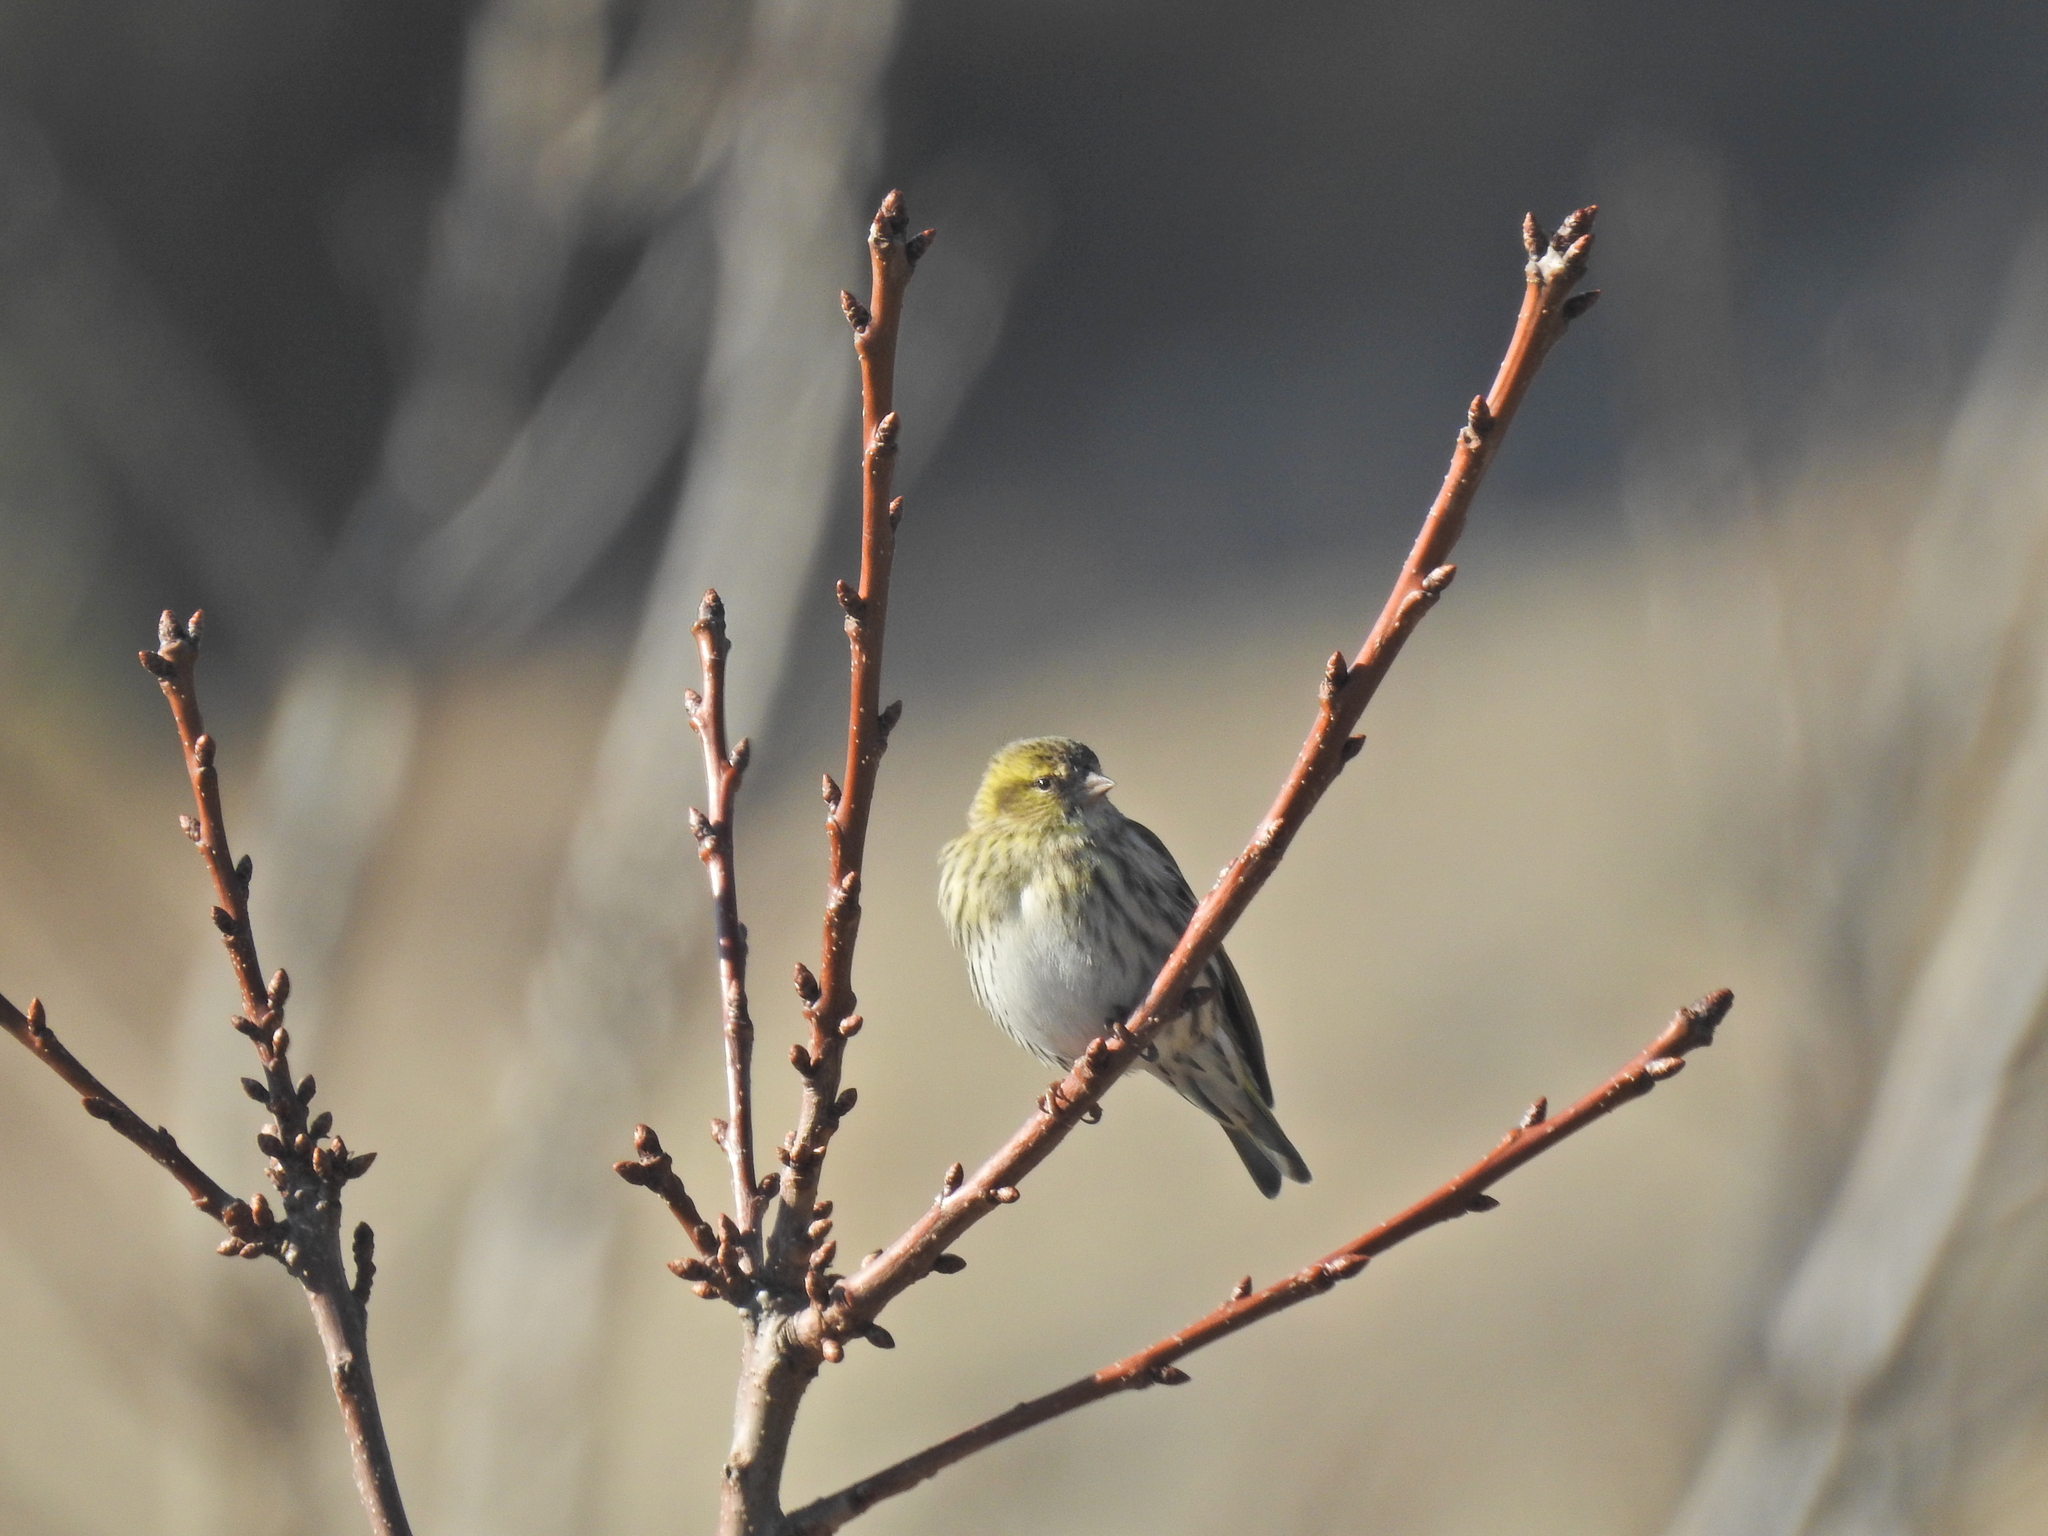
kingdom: Animalia
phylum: Chordata
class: Aves
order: Passeriformes
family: Fringillidae
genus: Spinus
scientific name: Spinus spinus
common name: Eurasian siskin
